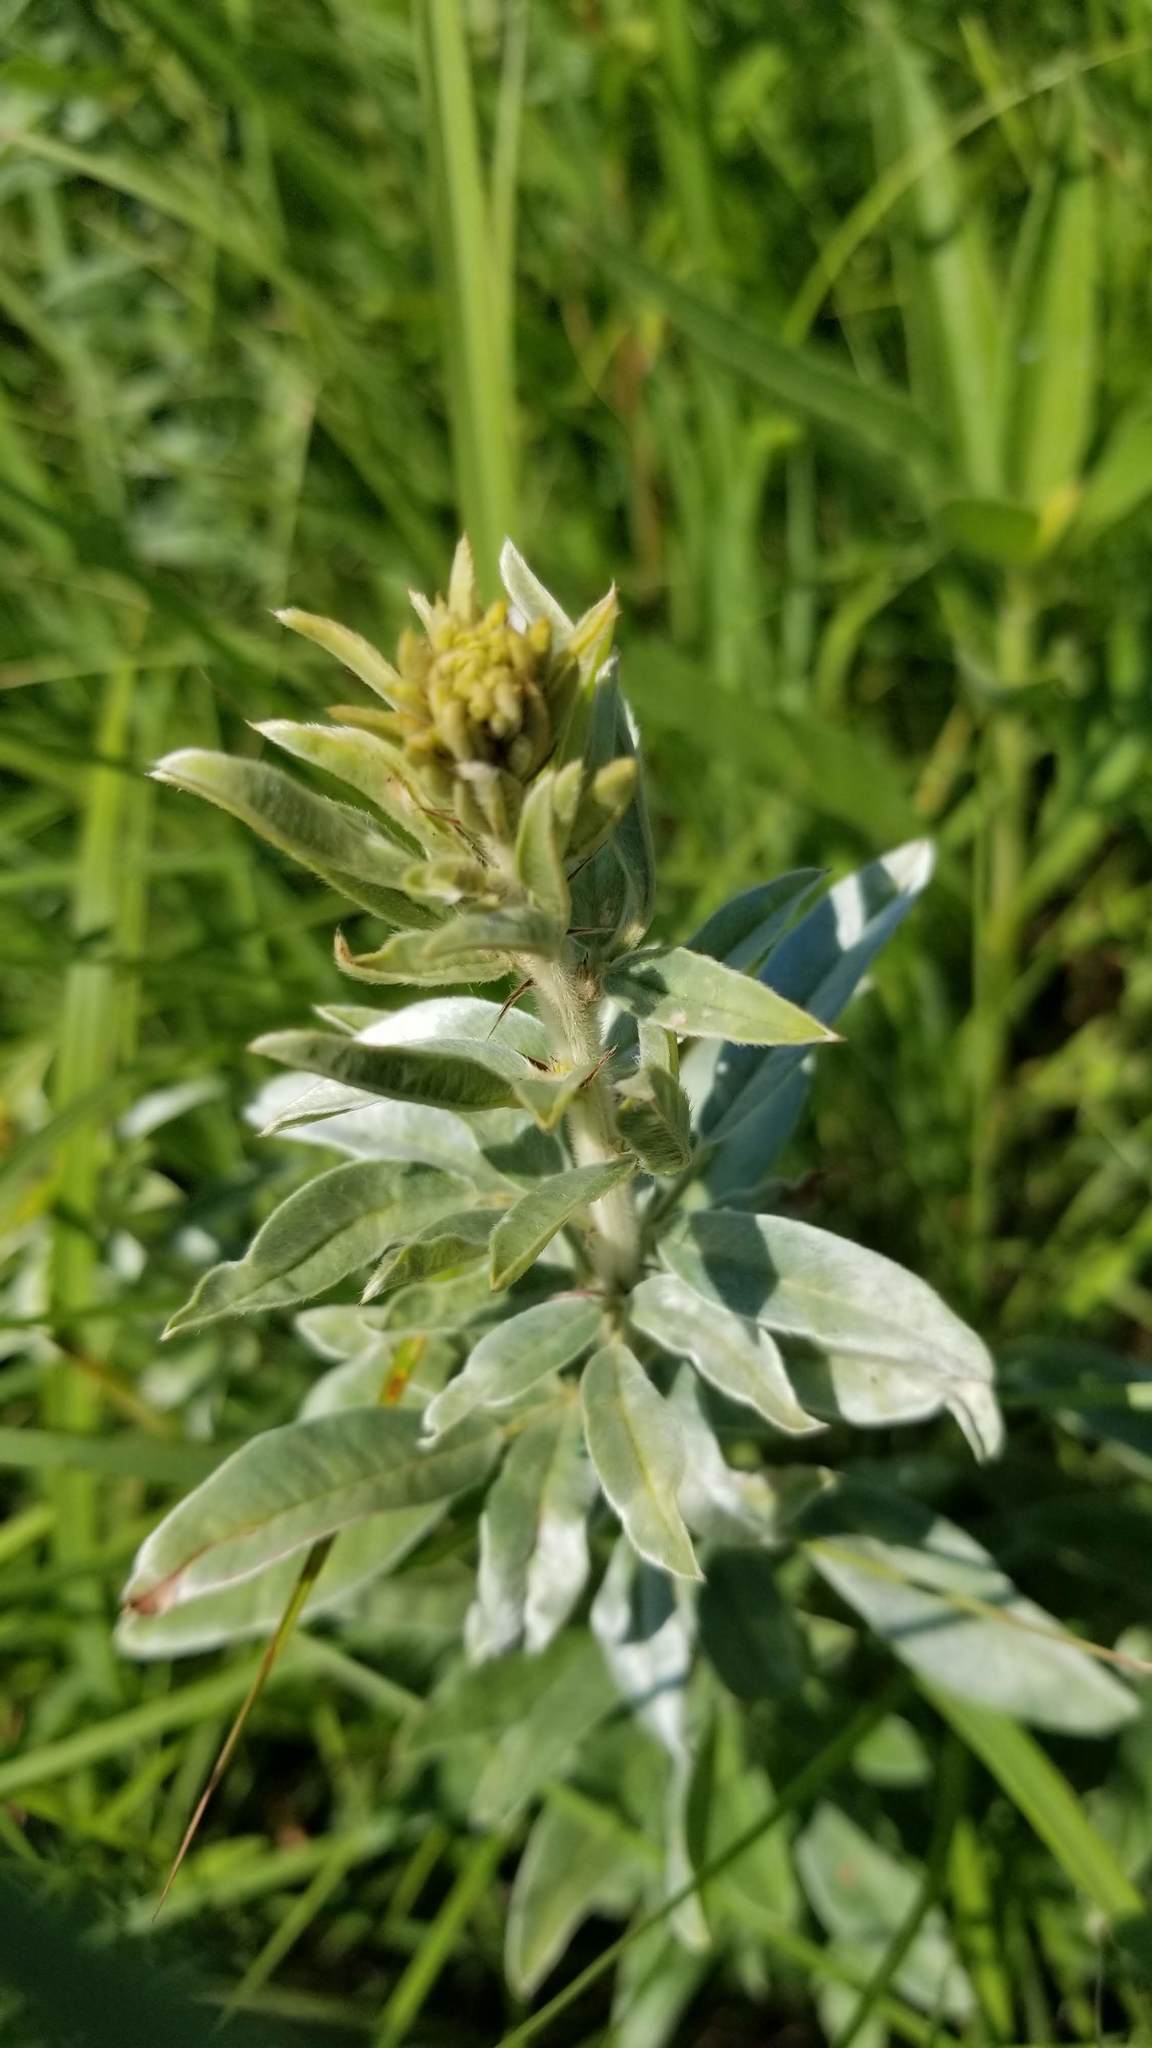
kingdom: Plantae
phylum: Tracheophyta
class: Magnoliopsida
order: Fabales
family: Fabaceae
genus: Lespedeza
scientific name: Lespedeza capitata
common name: Dusty clover
